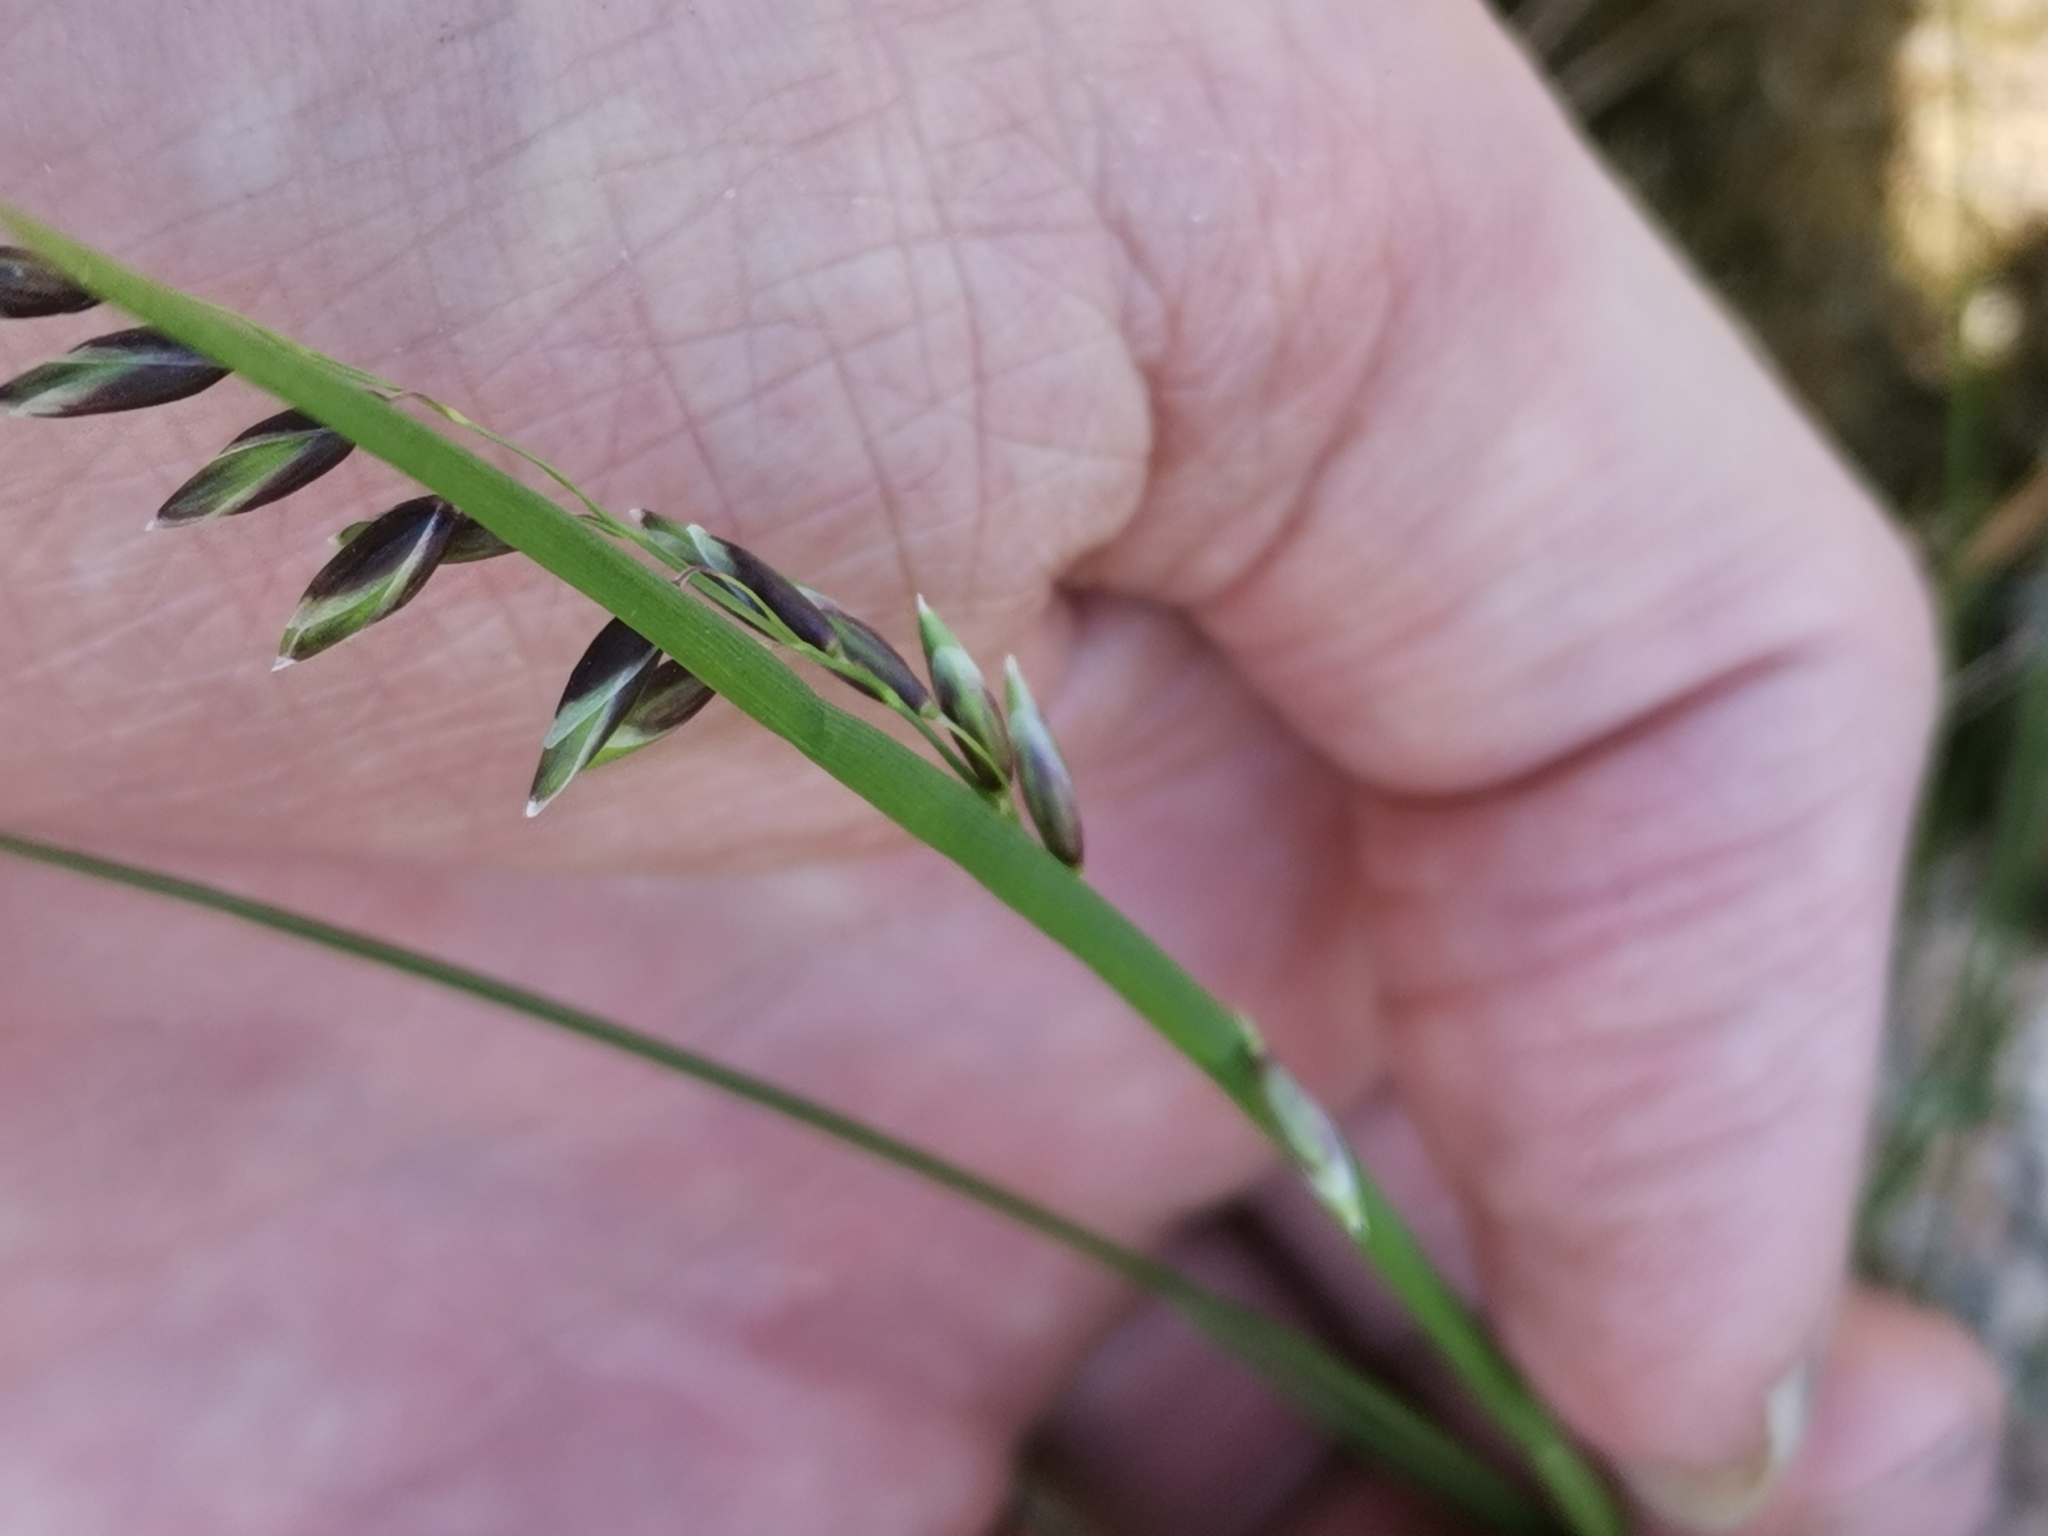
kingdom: Plantae
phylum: Tracheophyta
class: Liliopsida
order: Poales
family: Poaceae
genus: Melica
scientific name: Melica nutans
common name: Mountain melick
